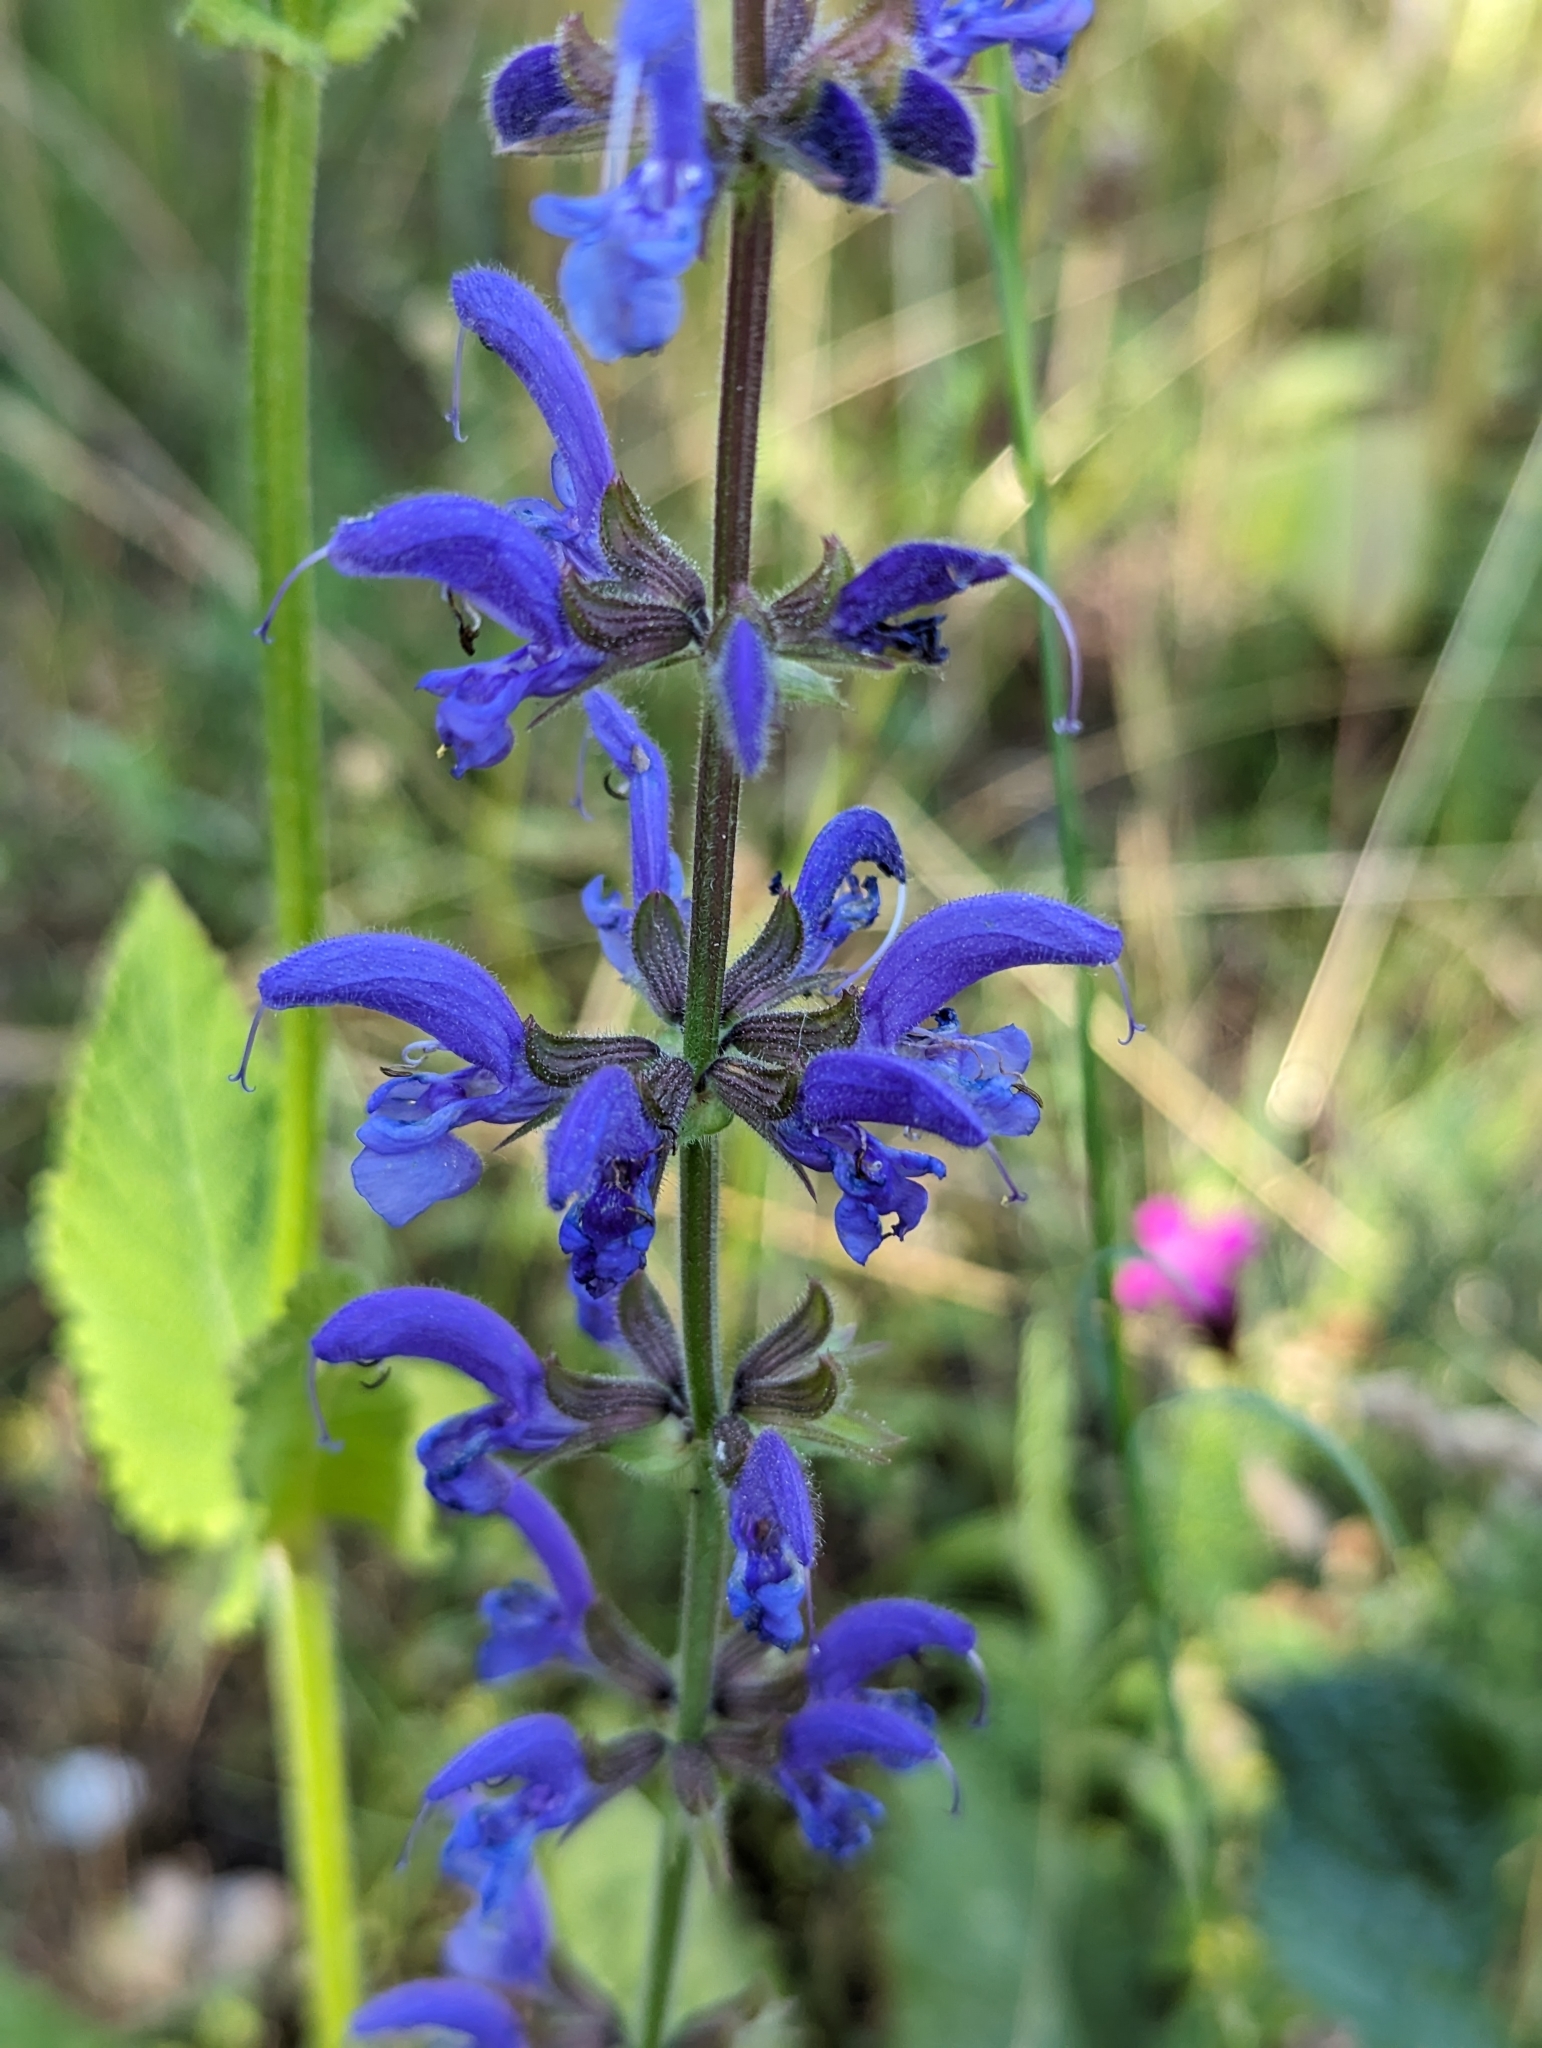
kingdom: Plantae
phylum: Tracheophyta
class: Magnoliopsida
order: Lamiales
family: Lamiaceae
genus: Salvia
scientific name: Salvia pratensis
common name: Meadow sage
